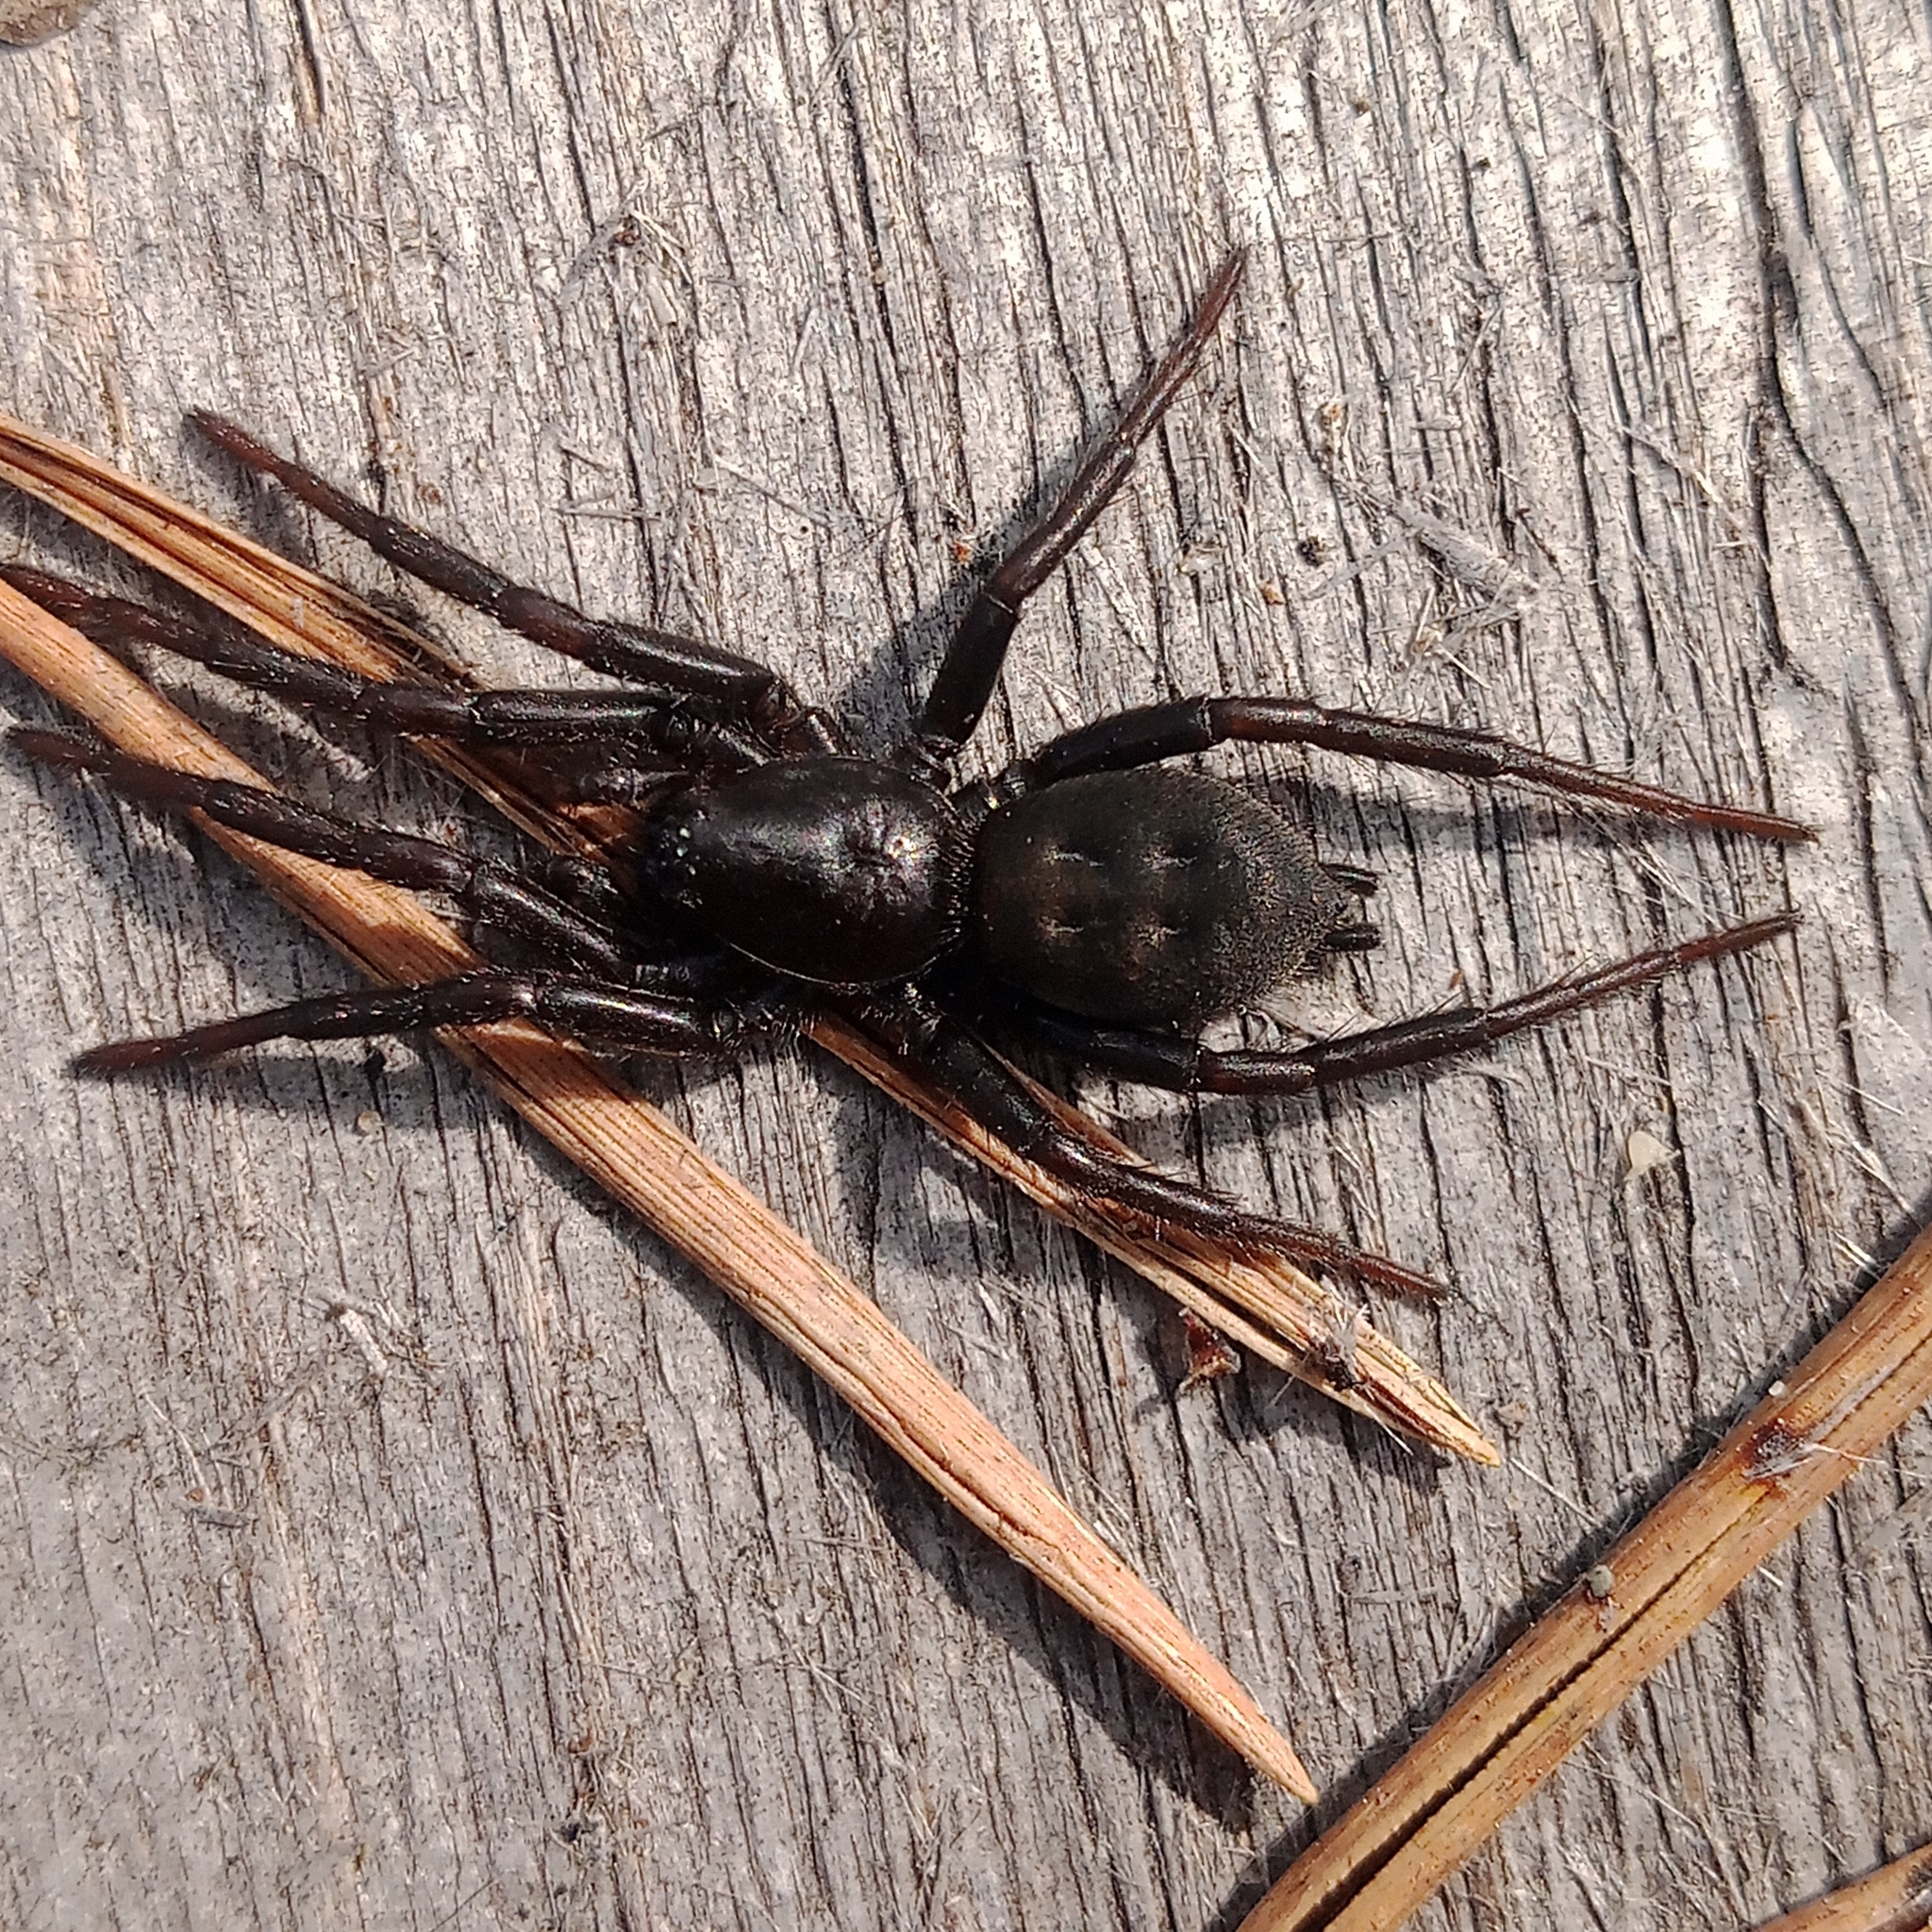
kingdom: Animalia
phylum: Arthropoda
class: Arachnida
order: Araneae
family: Gnaphosidae
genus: Gnaphosa
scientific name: Gnaphosa
